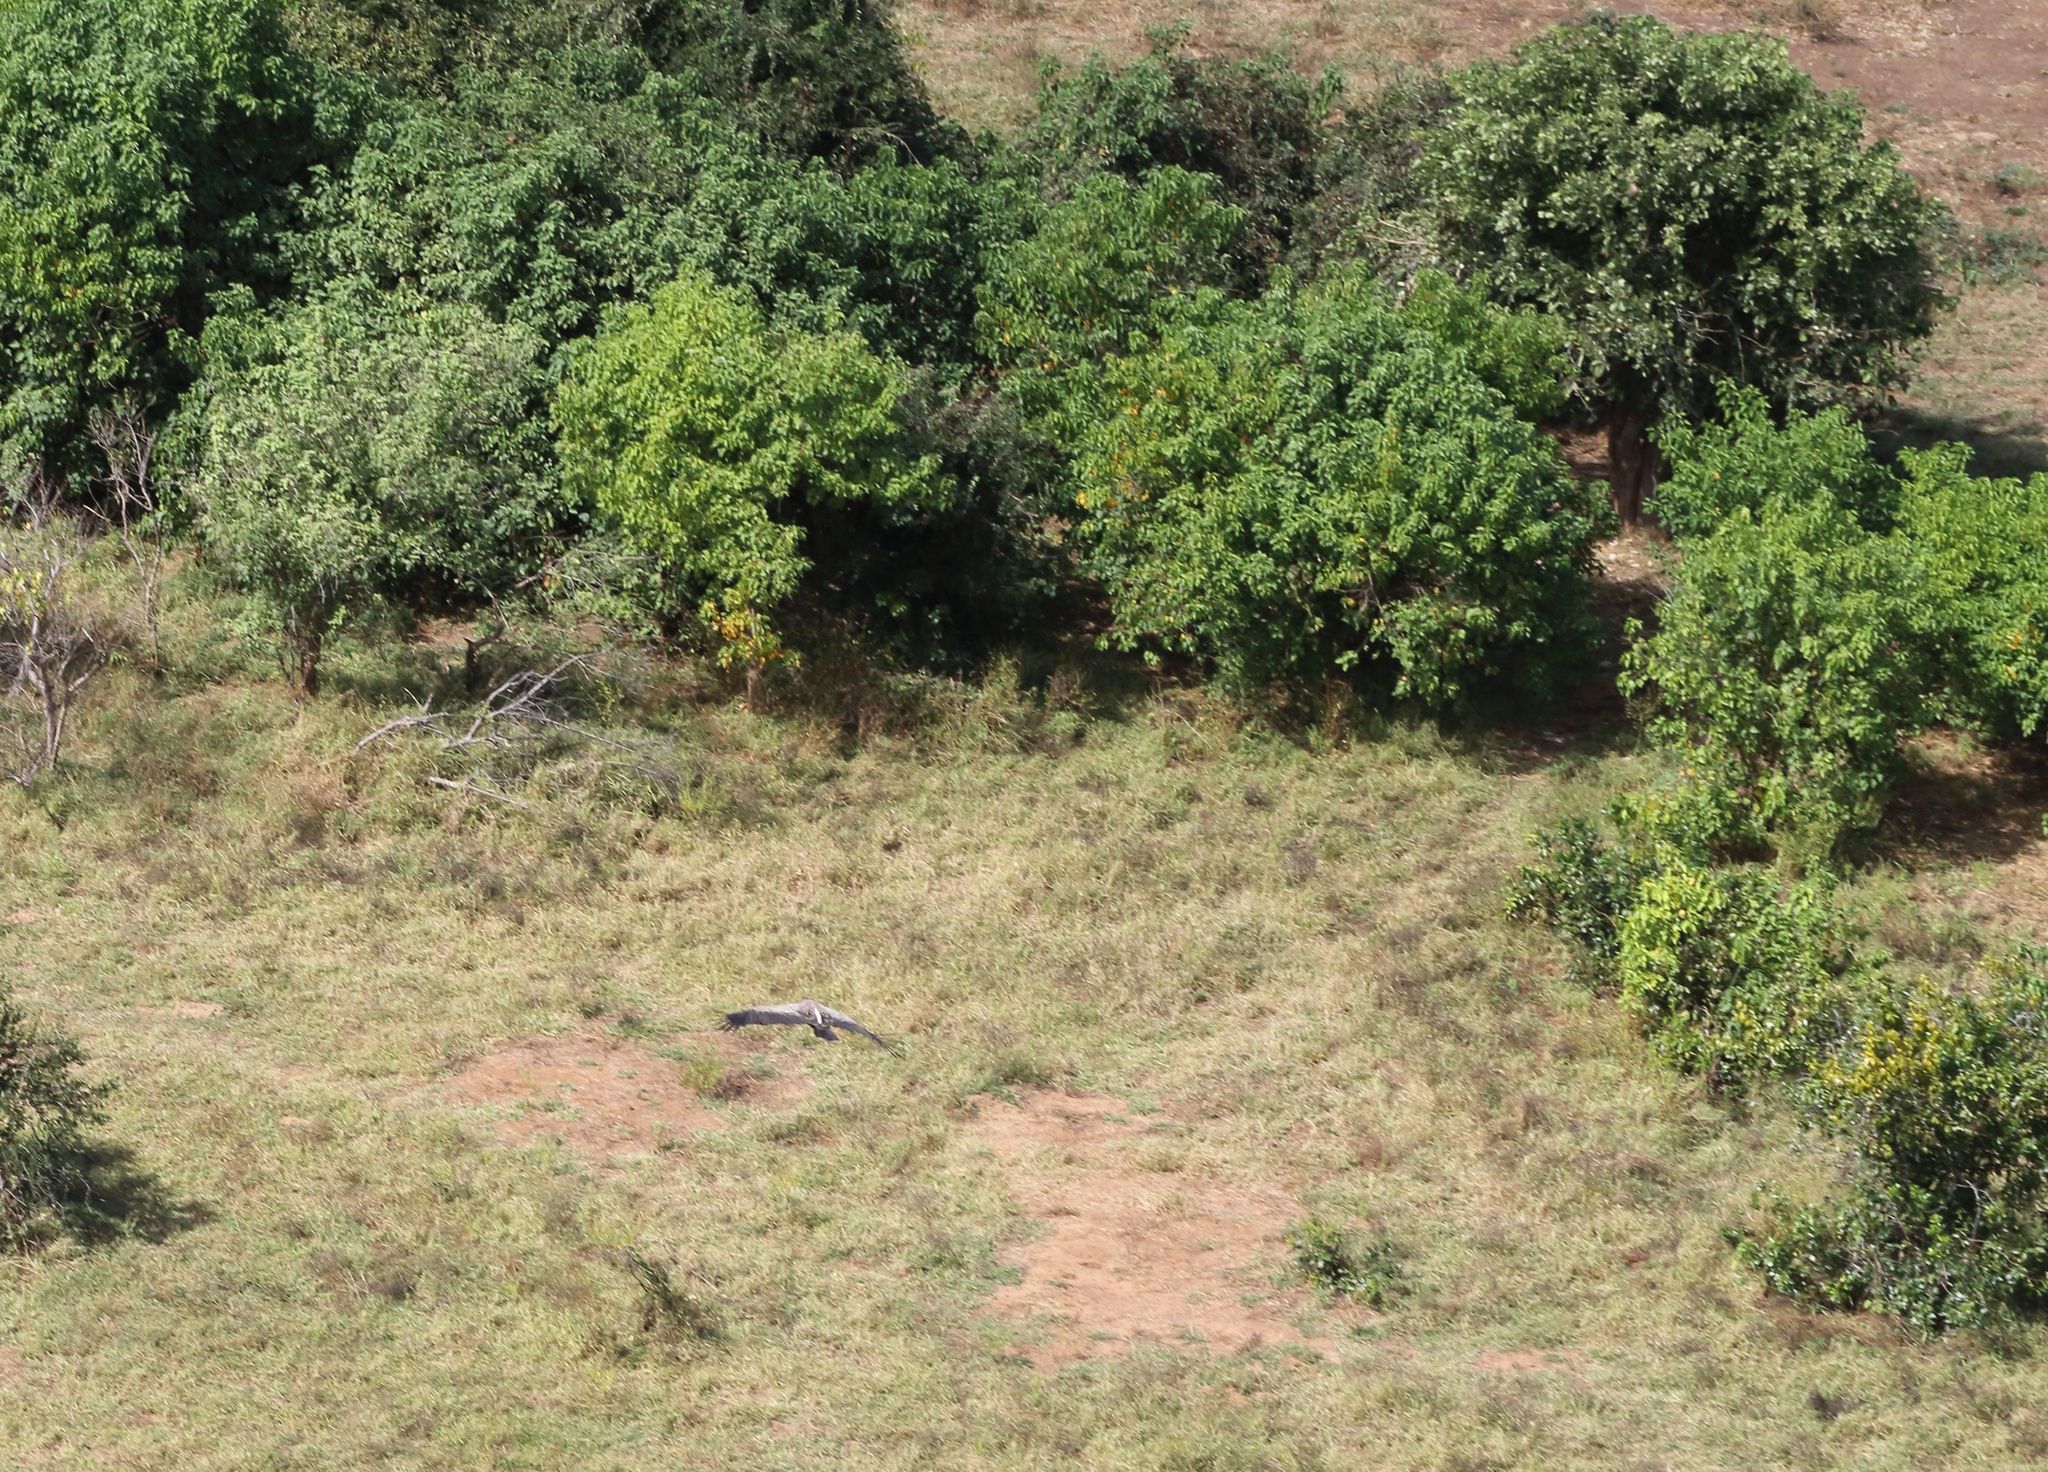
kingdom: Animalia
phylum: Chordata
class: Aves
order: Accipitriformes
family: Accipitridae
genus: Gyps
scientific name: Gyps africanus
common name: White-backed vulture
